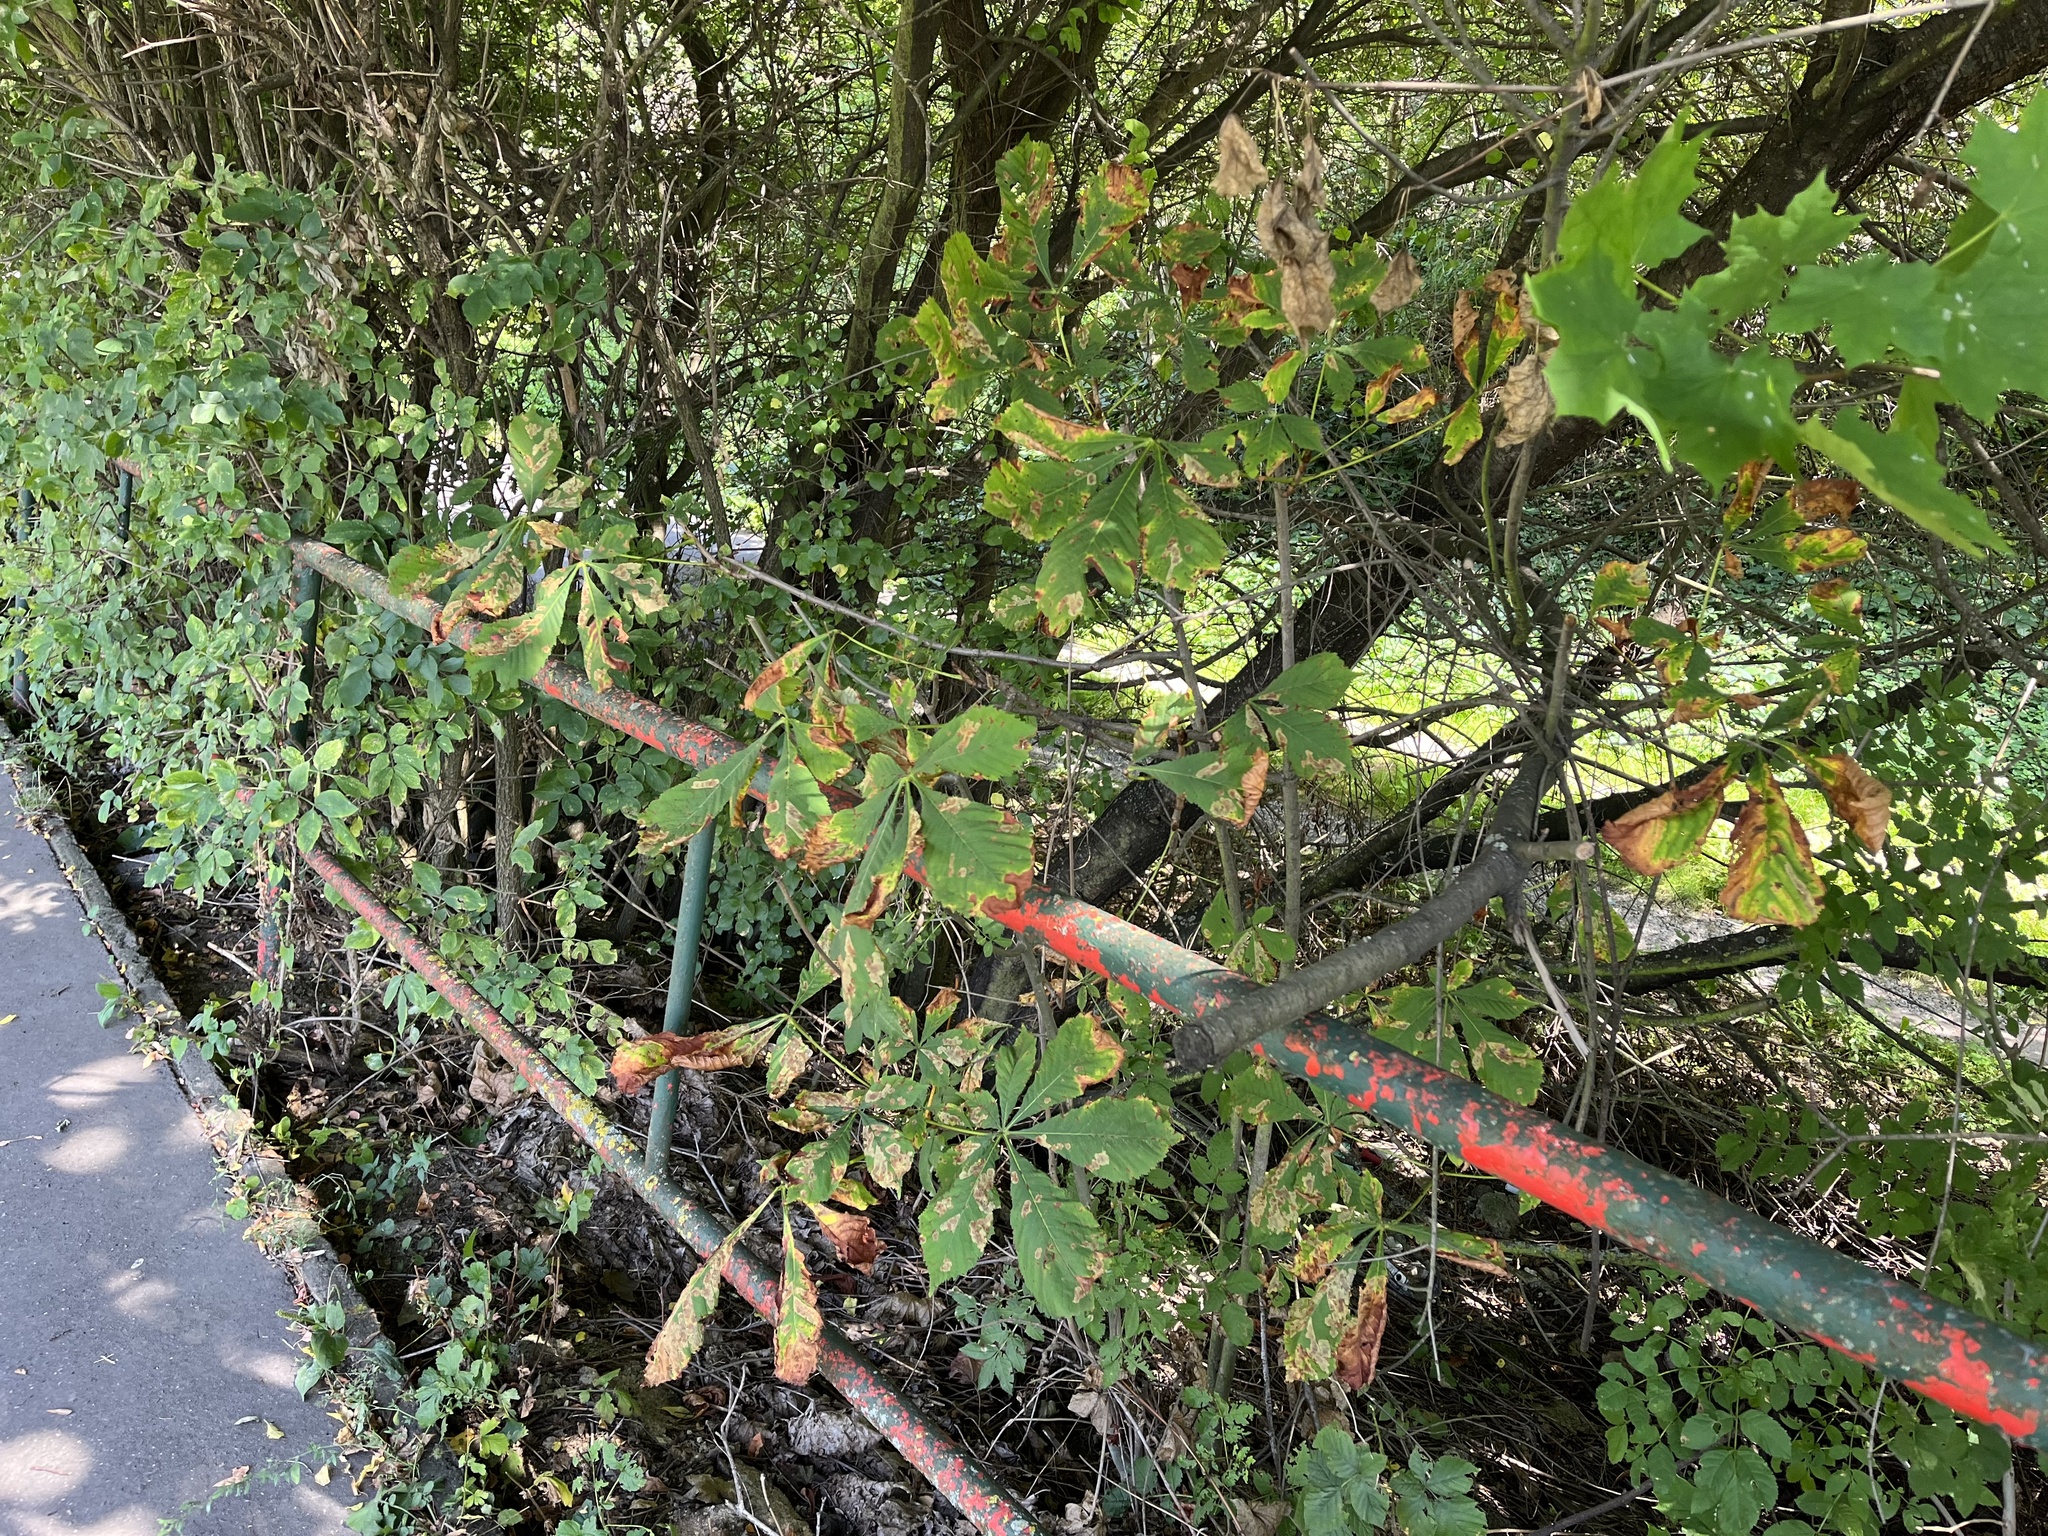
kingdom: Plantae
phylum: Tracheophyta
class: Magnoliopsida
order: Sapindales
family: Sapindaceae
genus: Aesculus
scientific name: Aesculus hippocastanum
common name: Horse-chestnut
